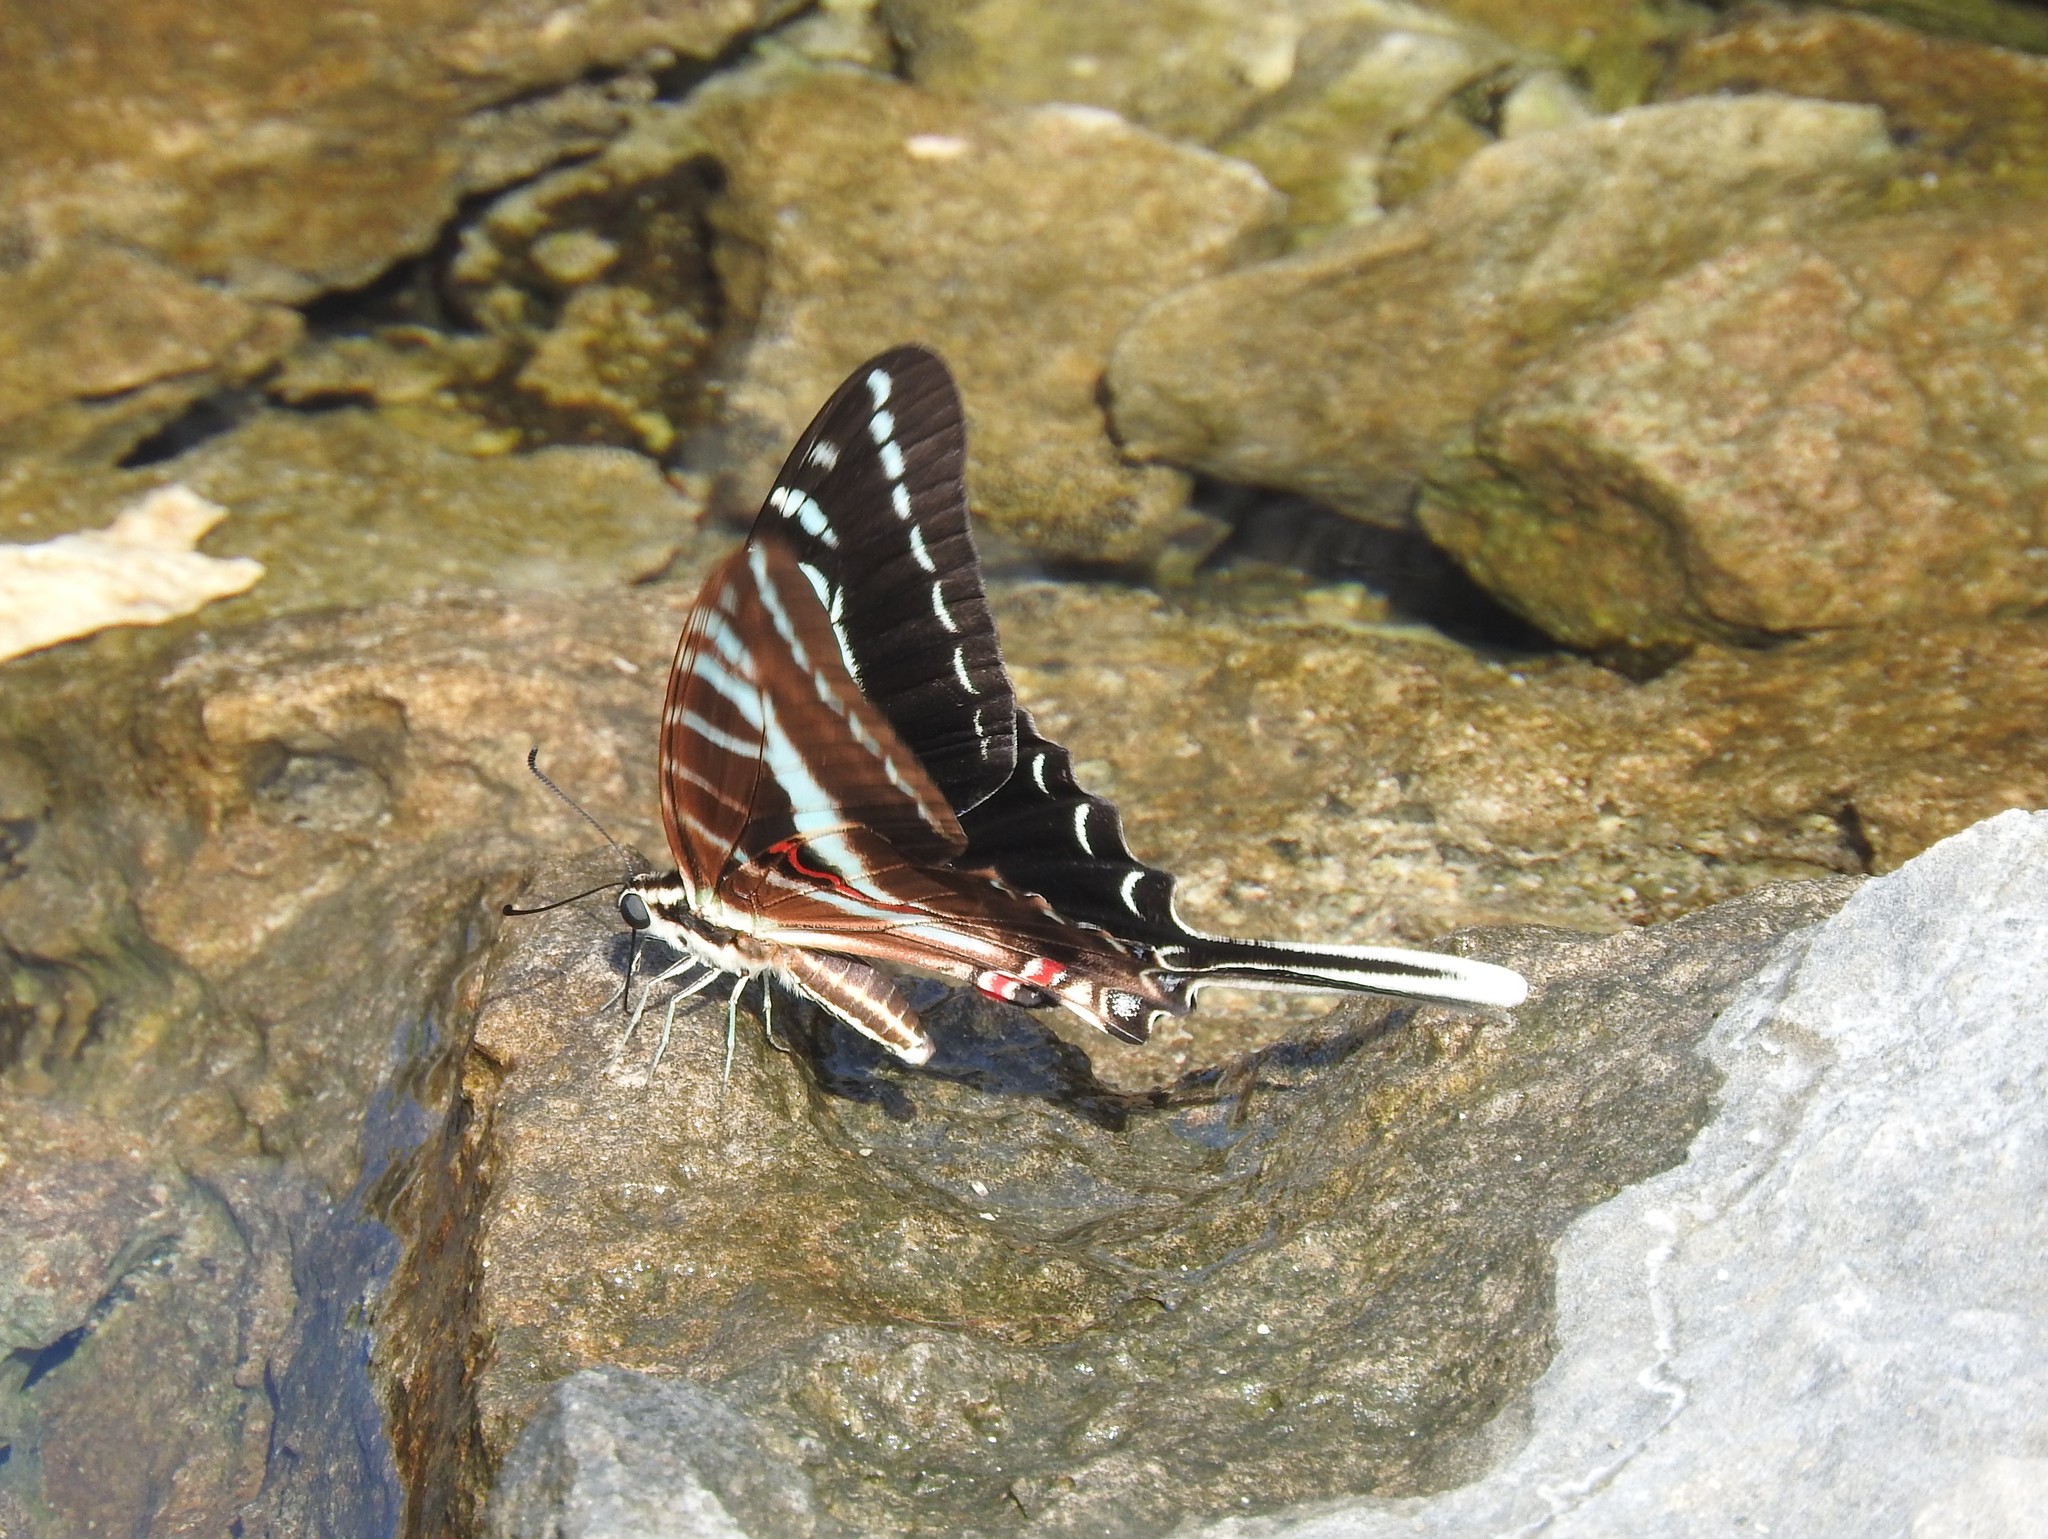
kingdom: Animalia
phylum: Arthropoda
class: Insecta
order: Lepidoptera
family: Papilionidae
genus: Protographium
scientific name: Protographium philolaus
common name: Dark zebra swallowtail
